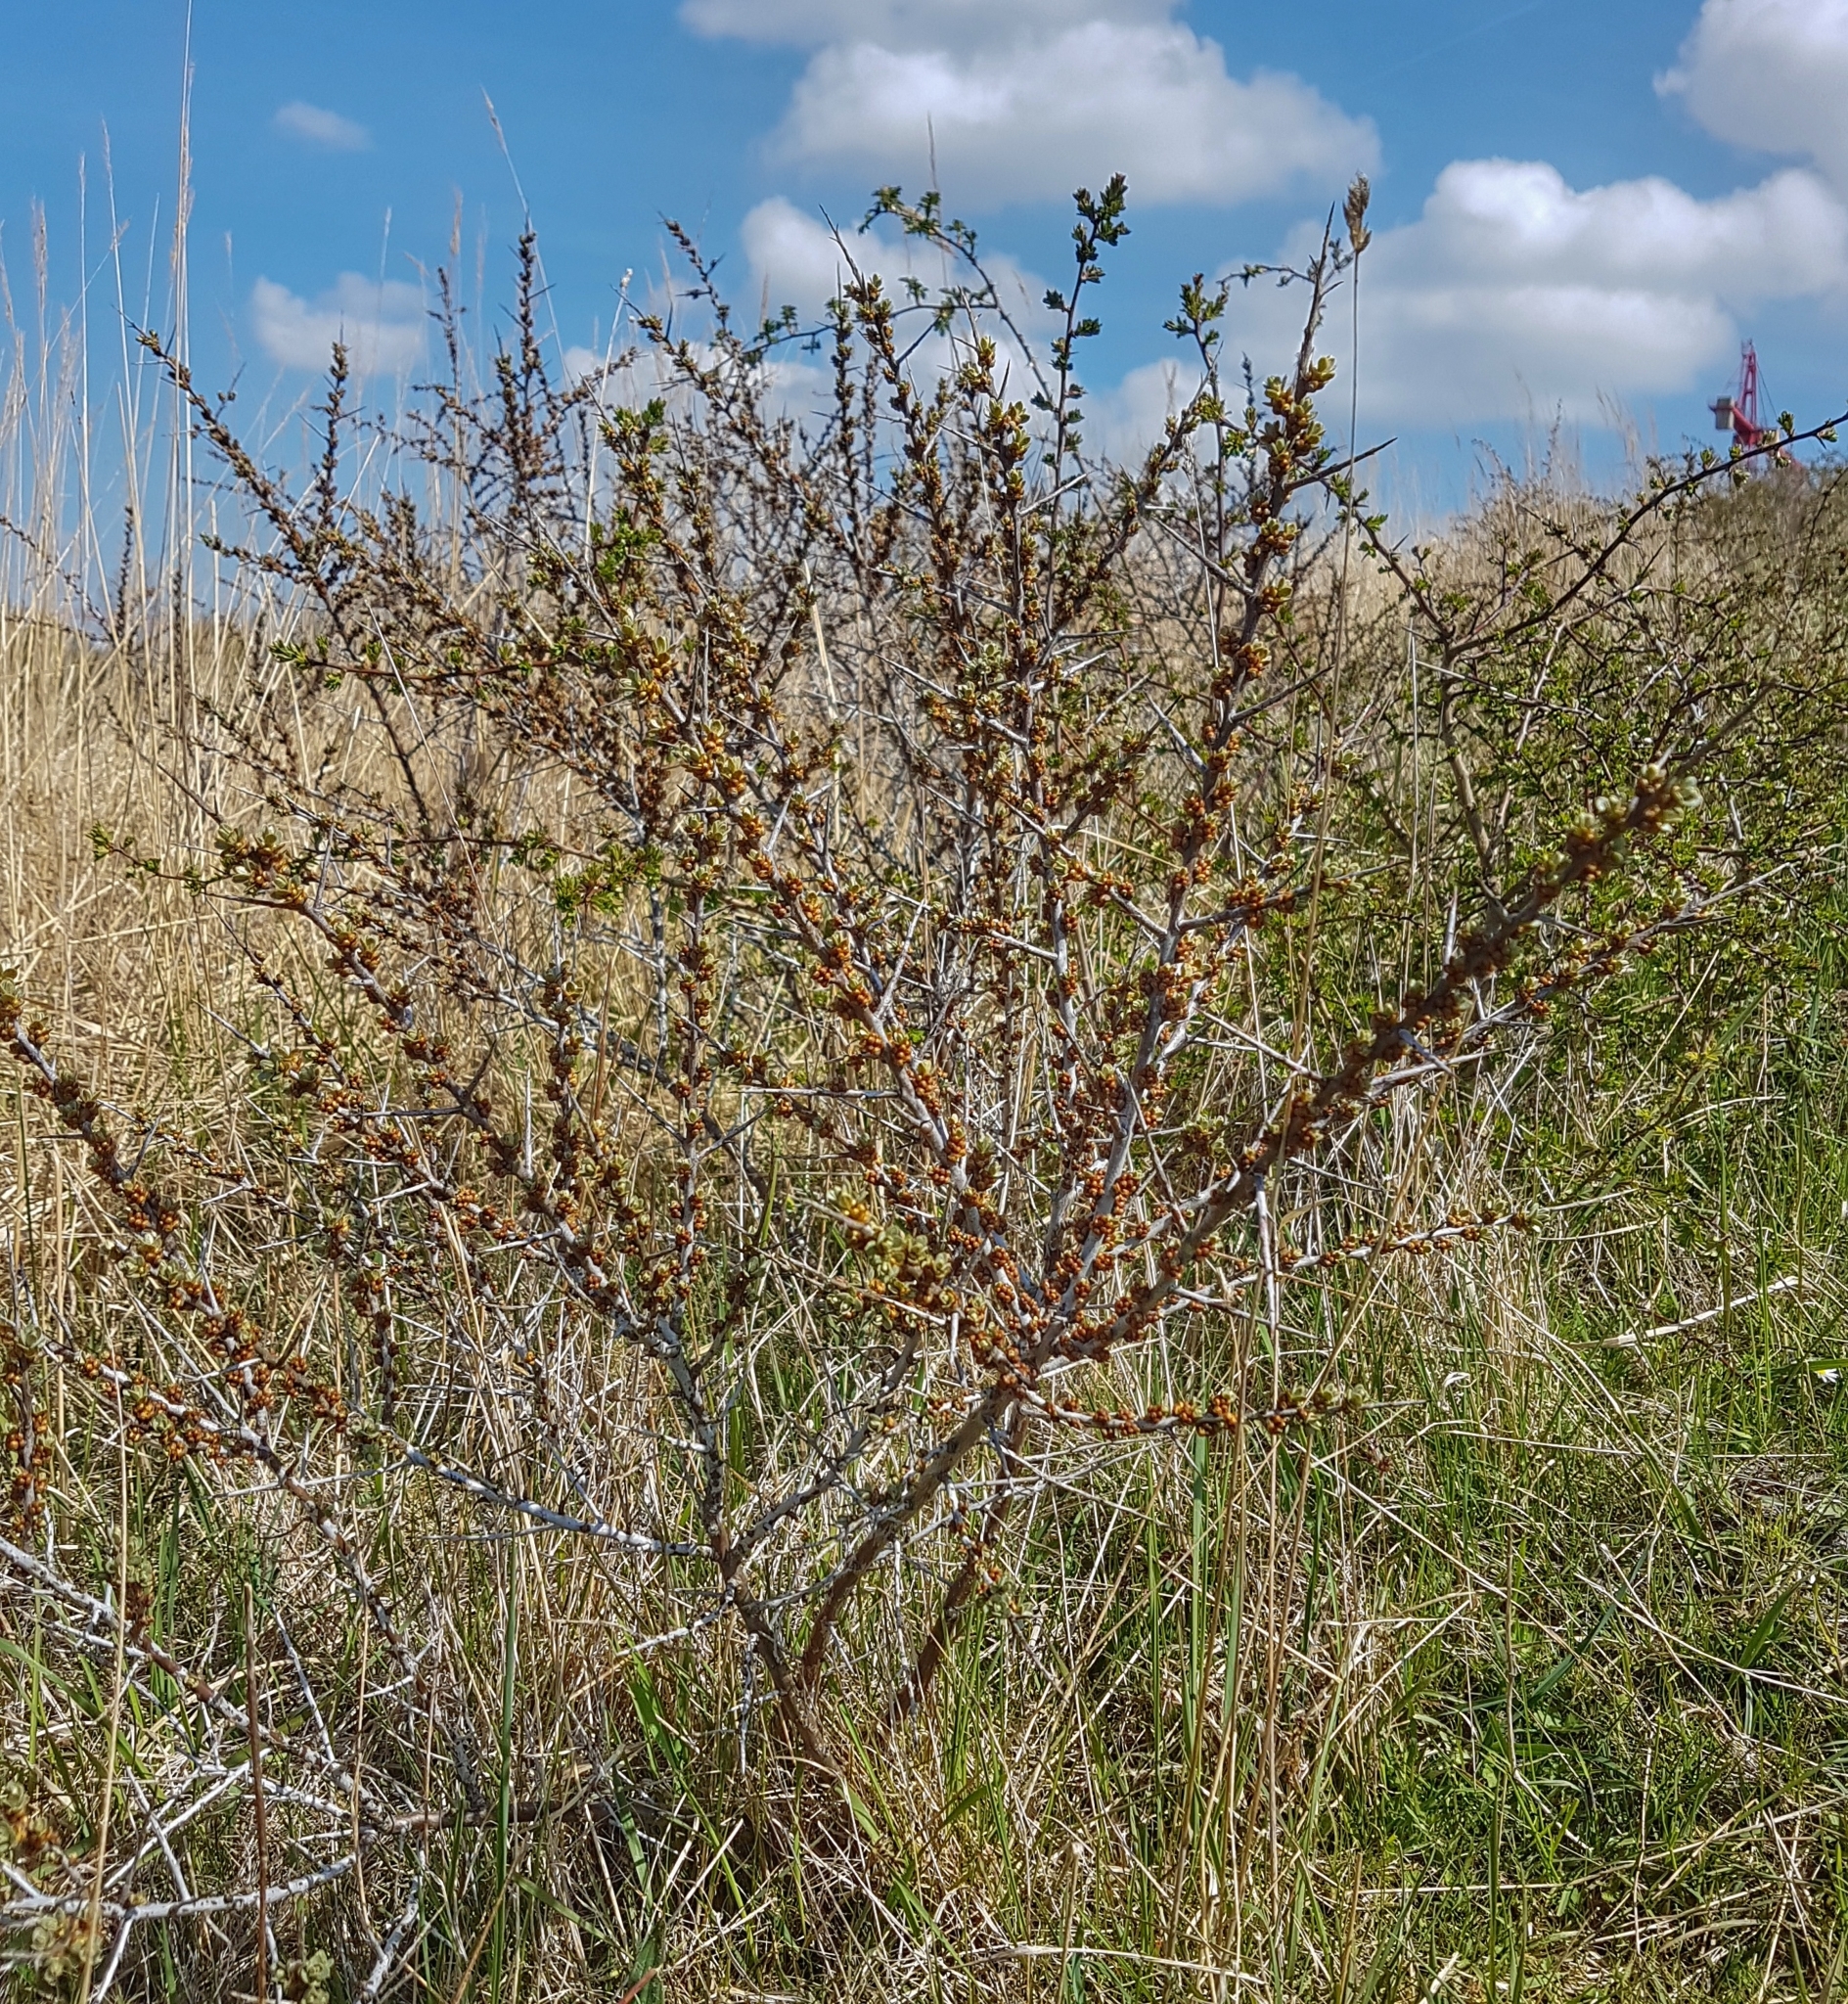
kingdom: Plantae
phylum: Tracheophyta
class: Magnoliopsida
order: Rosales
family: Elaeagnaceae
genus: Hippophae
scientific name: Hippophae rhamnoides
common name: Sea-buckthorn
